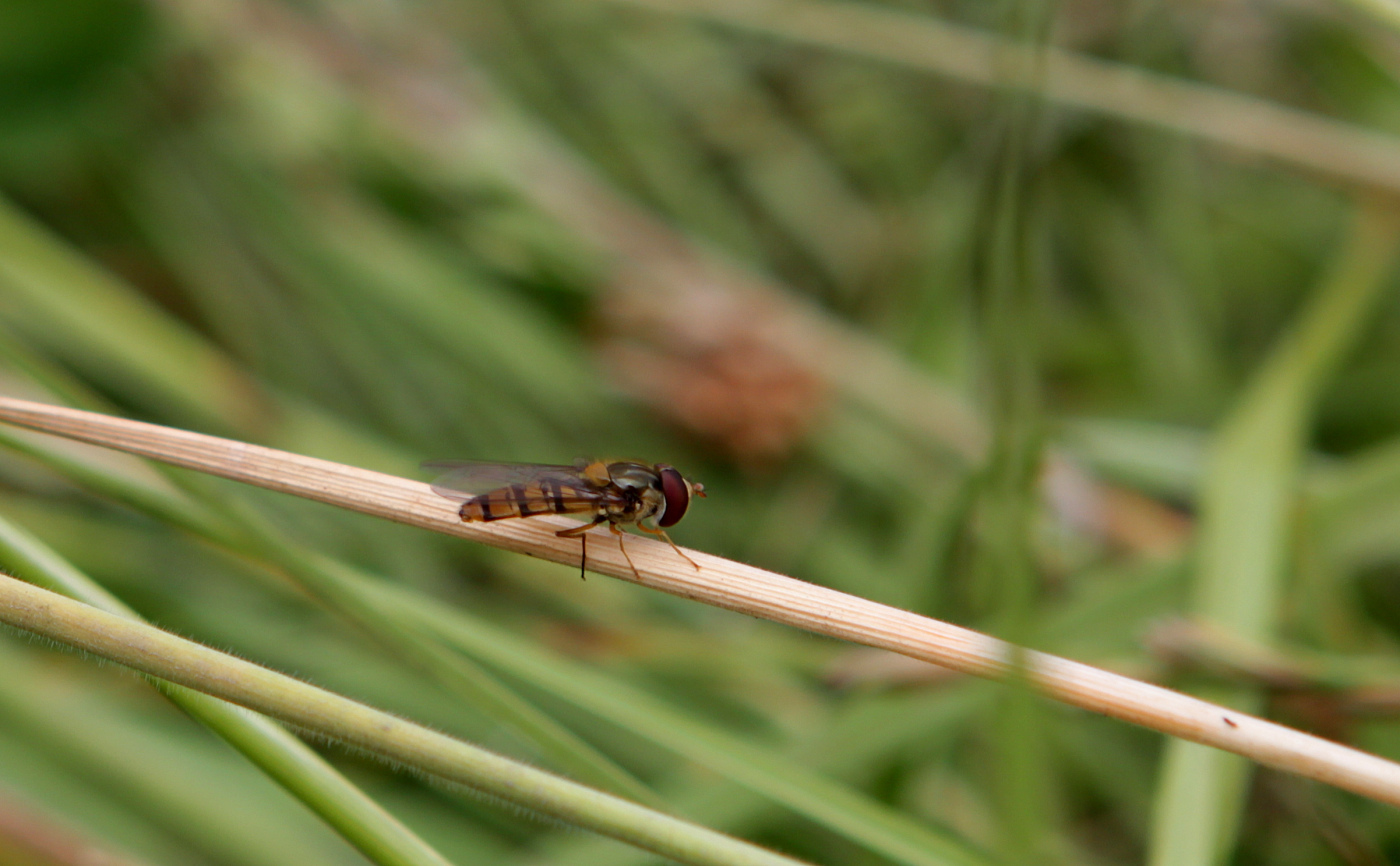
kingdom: Animalia
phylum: Arthropoda
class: Insecta
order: Diptera
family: Syrphidae
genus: Episyrphus
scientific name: Episyrphus balteatus
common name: Marmalade hoverfly
